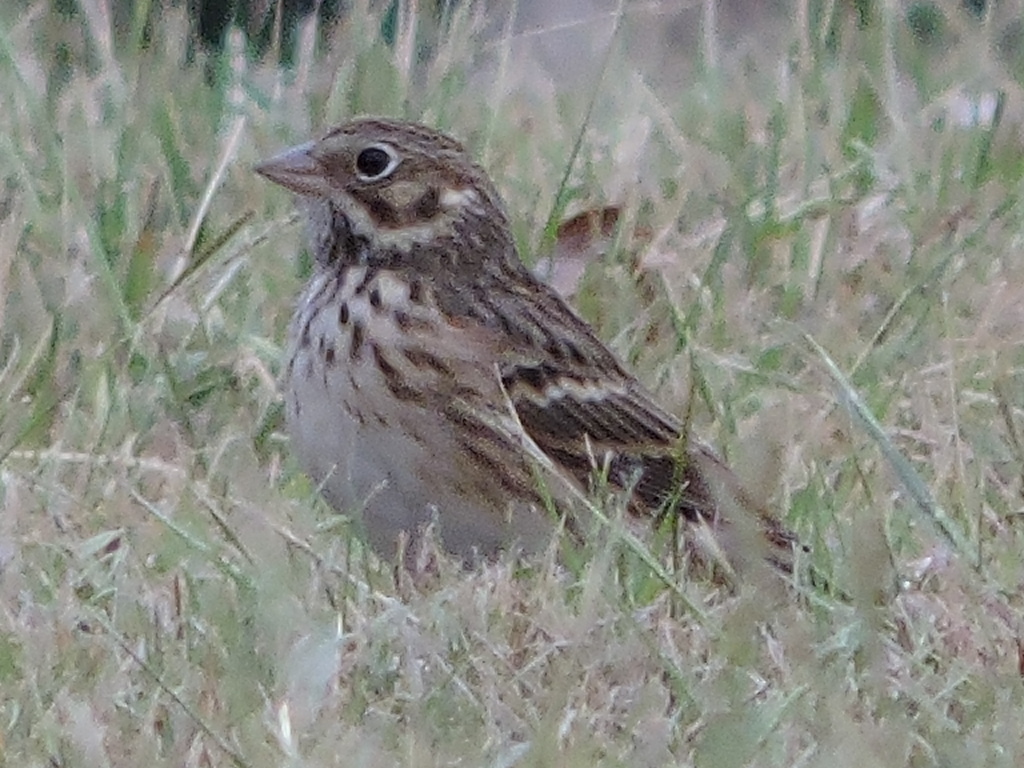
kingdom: Animalia
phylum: Chordata
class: Aves
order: Passeriformes
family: Passerellidae
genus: Pooecetes
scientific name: Pooecetes gramineus
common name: Vesper sparrow
